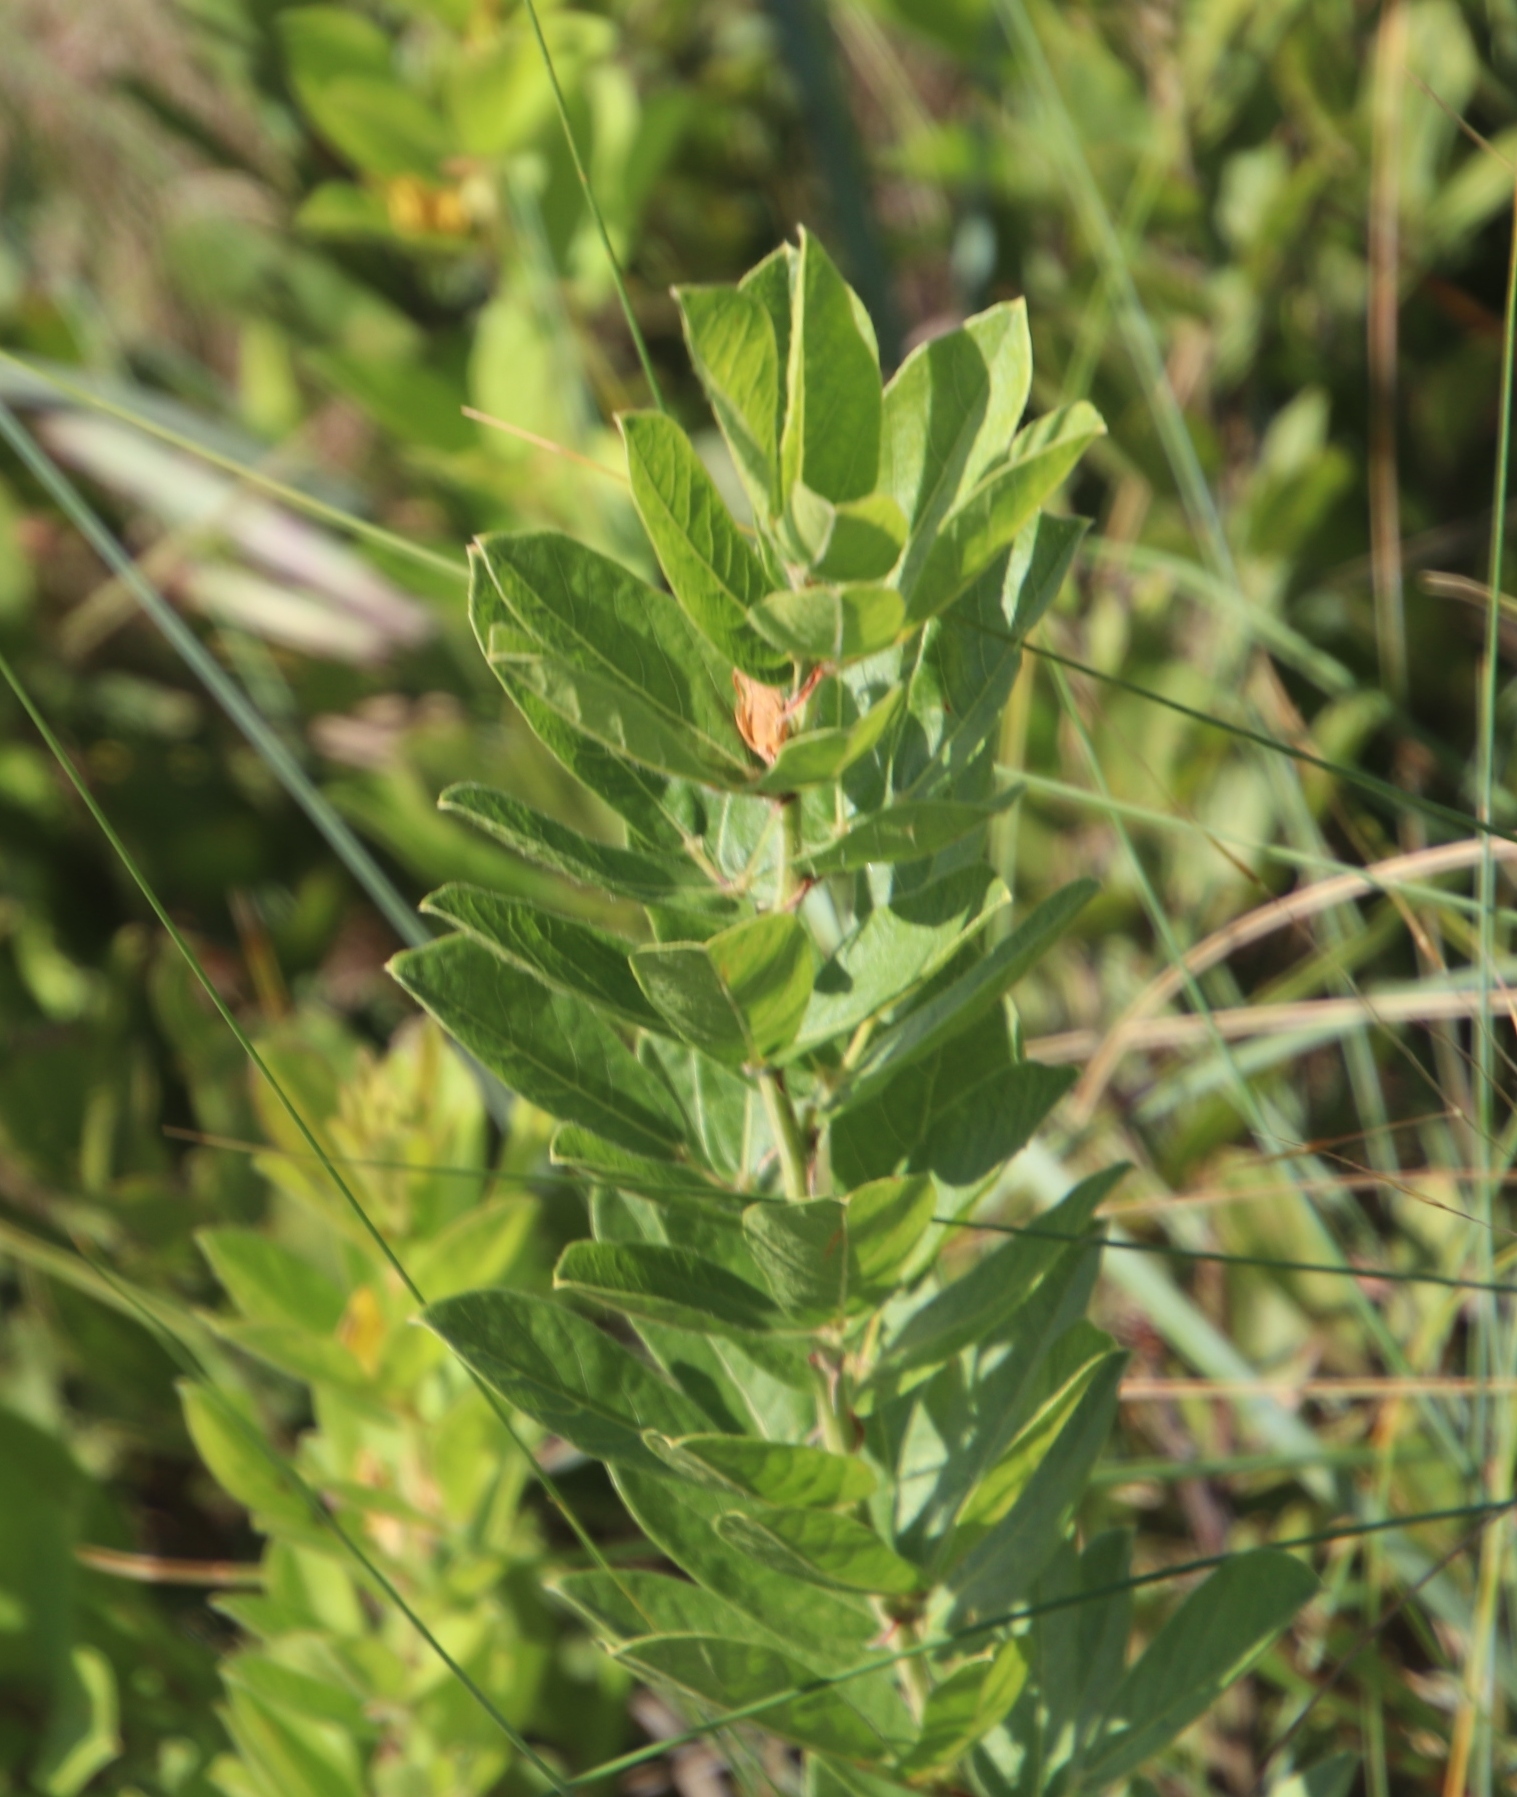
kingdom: Plantae
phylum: Tracheophyta
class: Magnoliopsida
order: Fabales
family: Fabaceae
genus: Rhynchosia
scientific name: Rhynchosia woodii
